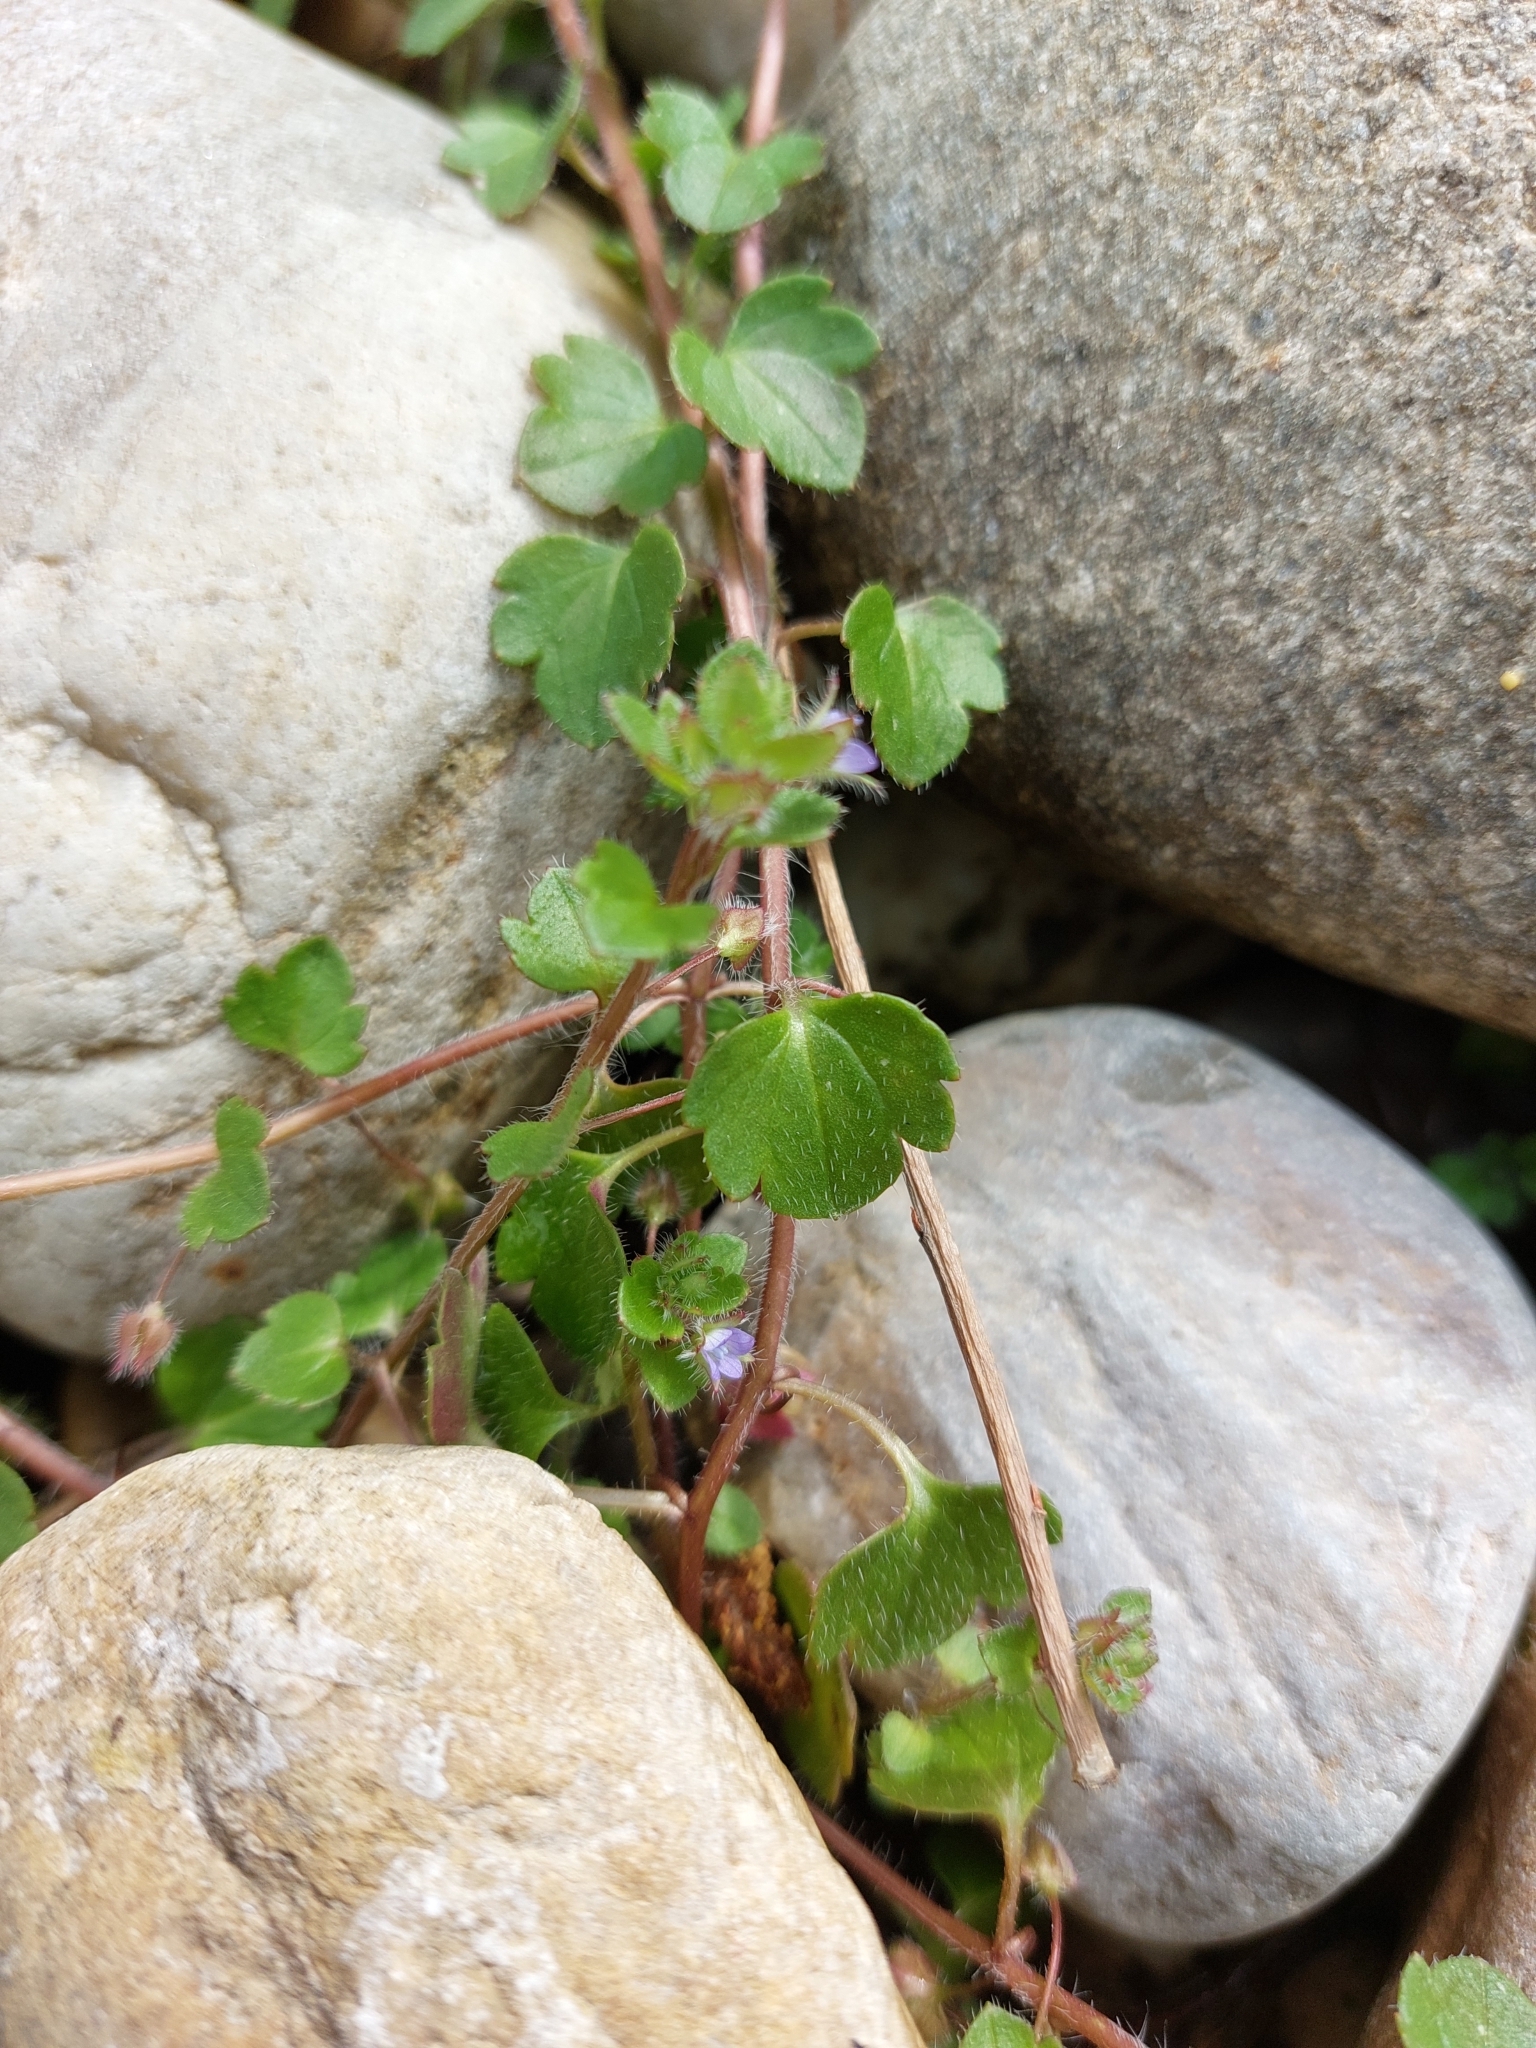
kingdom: Plantae
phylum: Tracheophyta
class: Magnoliopsida
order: Lamiales
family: Plantaginaceae
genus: Veronica
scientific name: Veronica hederifolia
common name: Ivy-leaved speedwell
